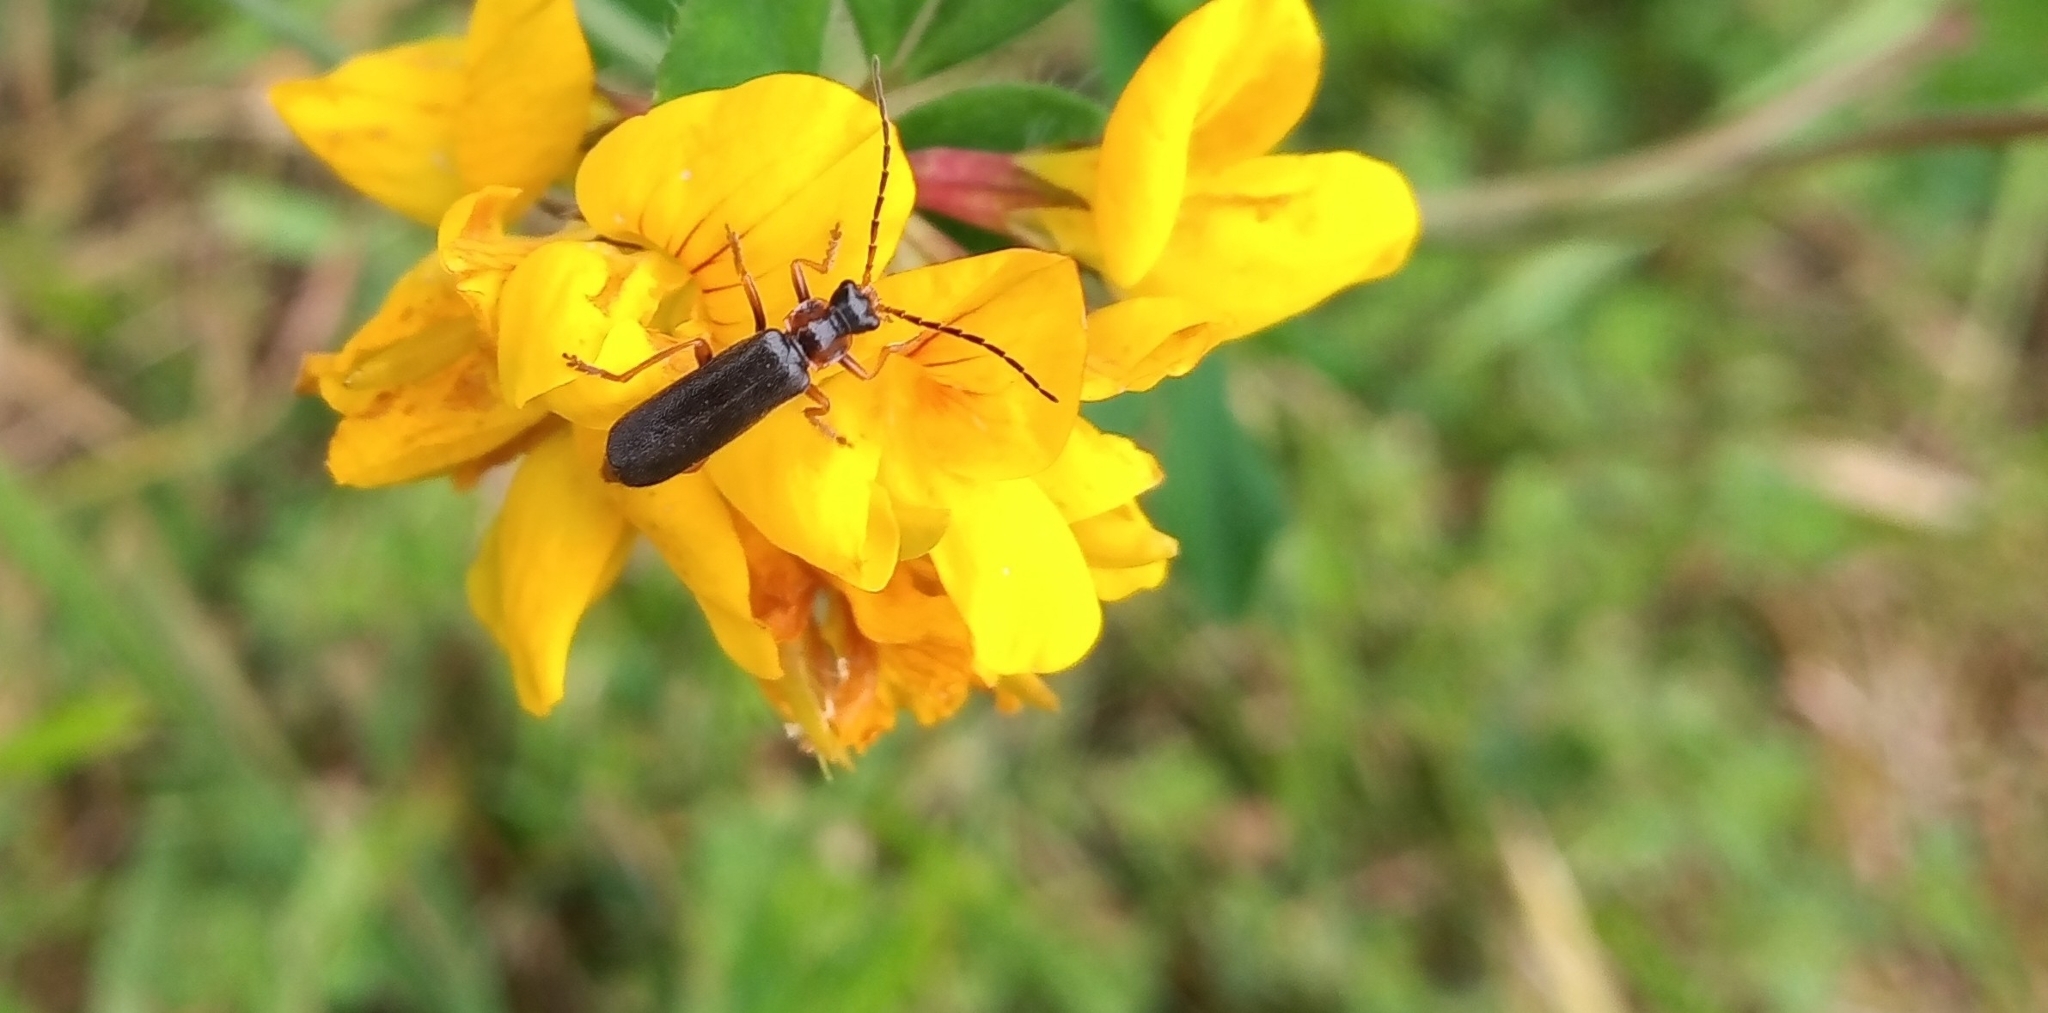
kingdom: Animalia
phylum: Arthropoda
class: Insecta
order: Coleoptera
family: Cantharidae
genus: Cantharis
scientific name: Cantharis flavilabris
